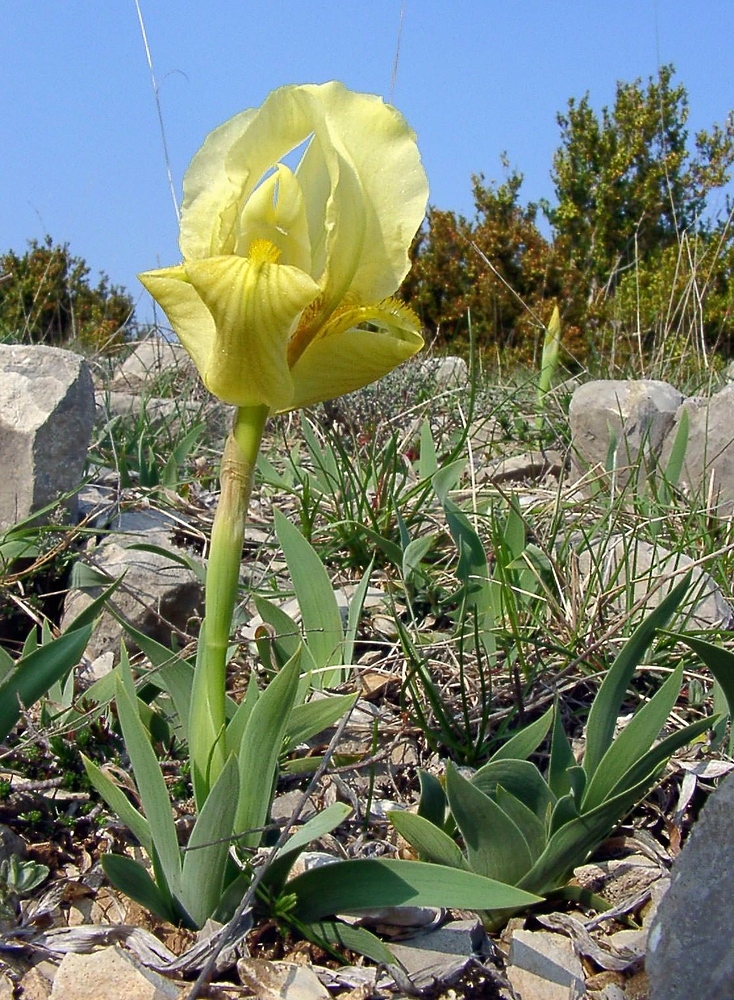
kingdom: Plantae
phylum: Tracheophyta
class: Liliopsida
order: Asparagales
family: Iridaceae
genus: Iris
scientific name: Iris lutescens
